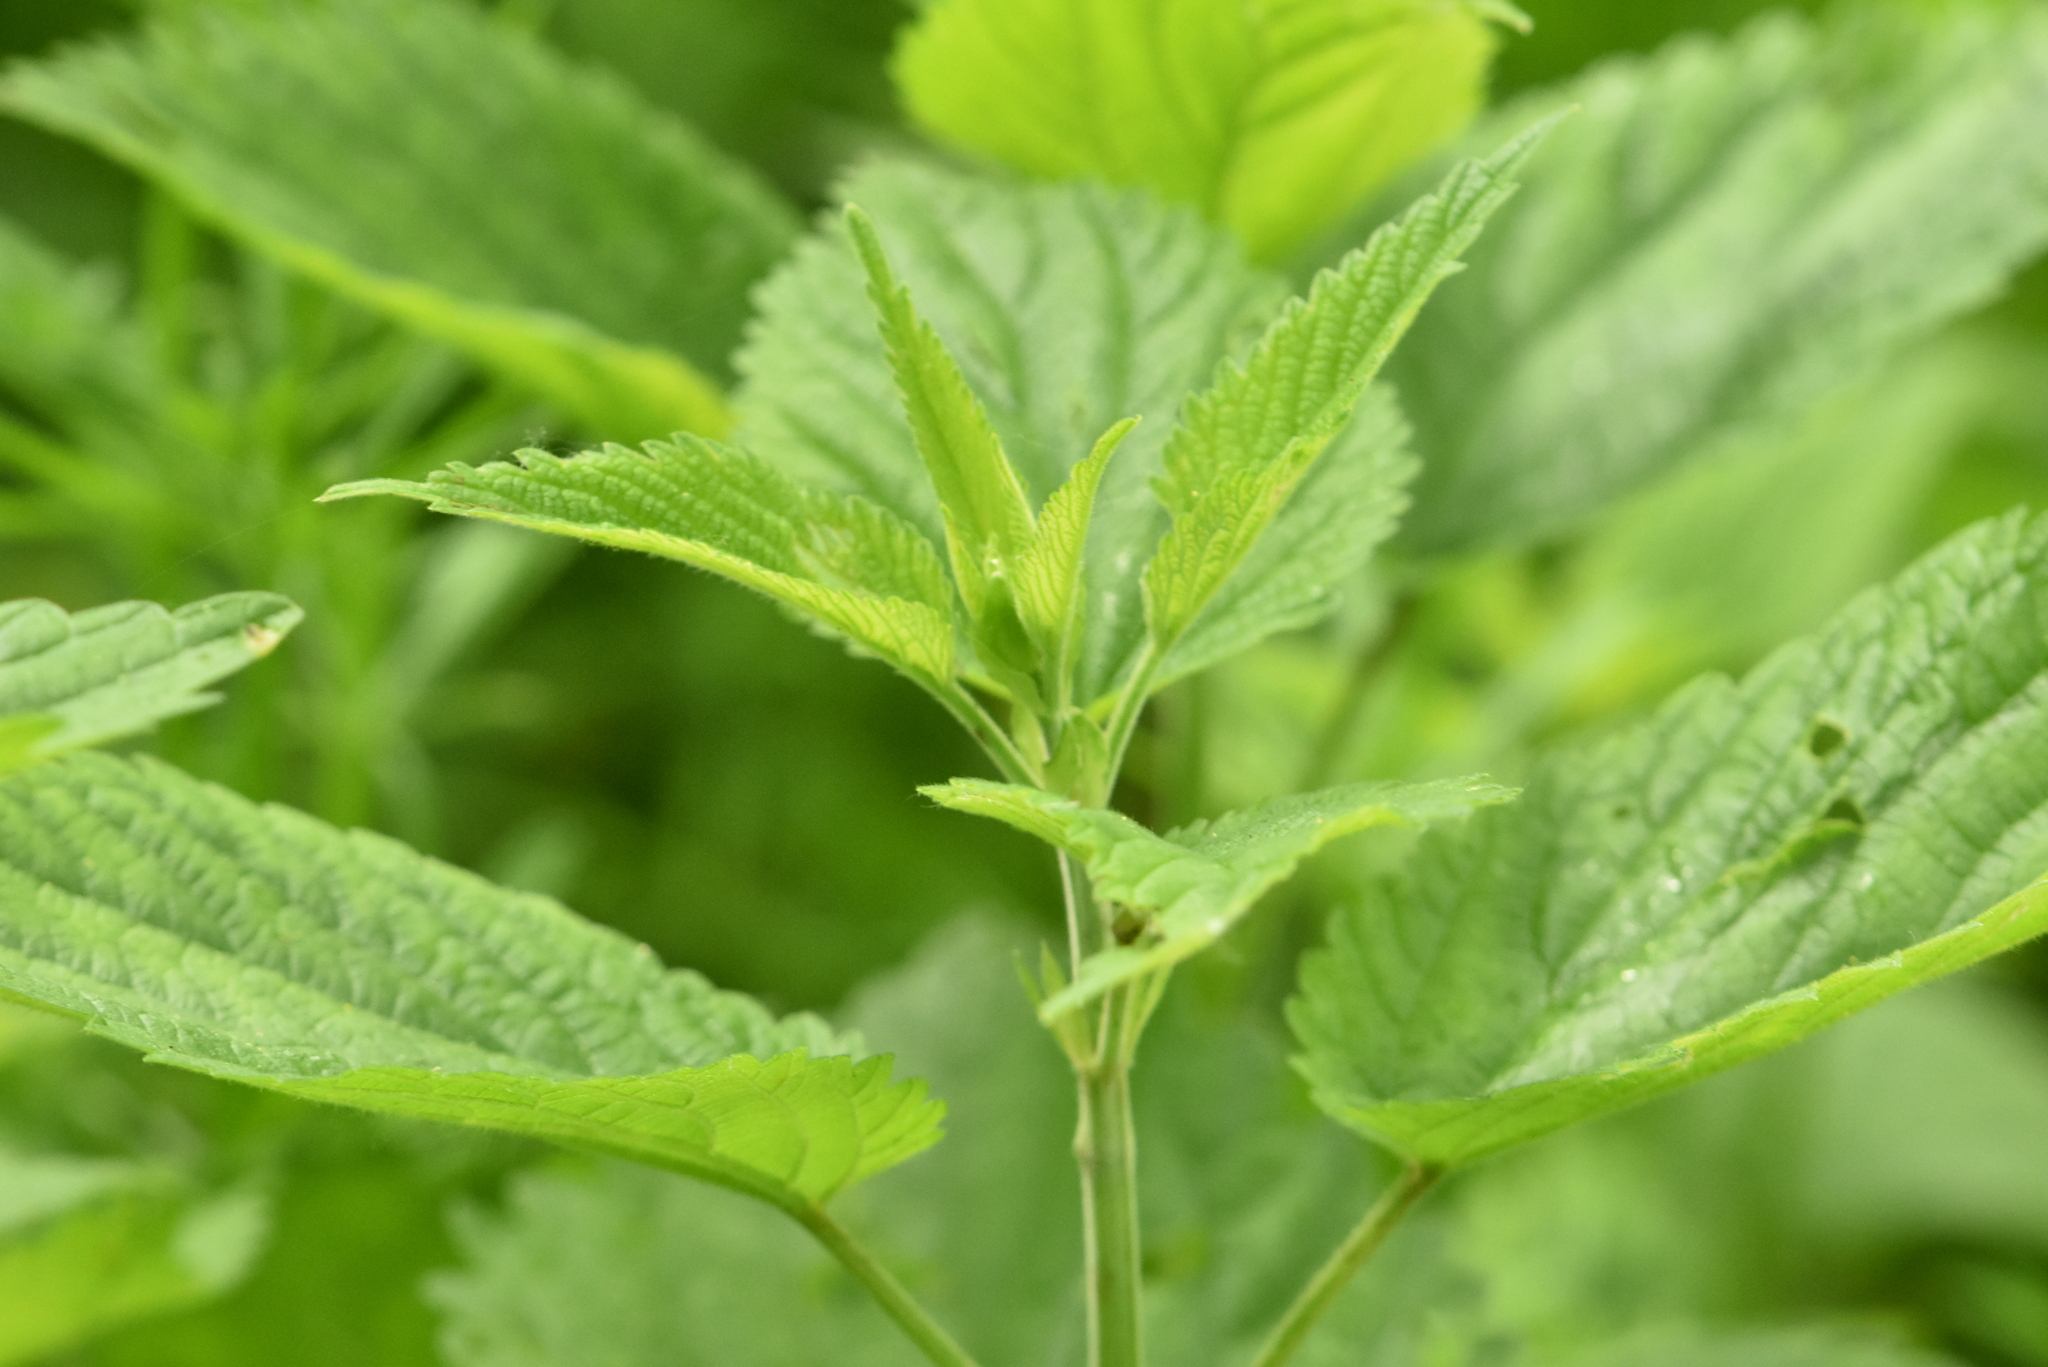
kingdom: Plantae
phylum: Tracheophyta
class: Magnoliopsida
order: Rosales
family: Urticaceae
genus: Urtica
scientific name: Urtica dioica
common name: Common nettle
